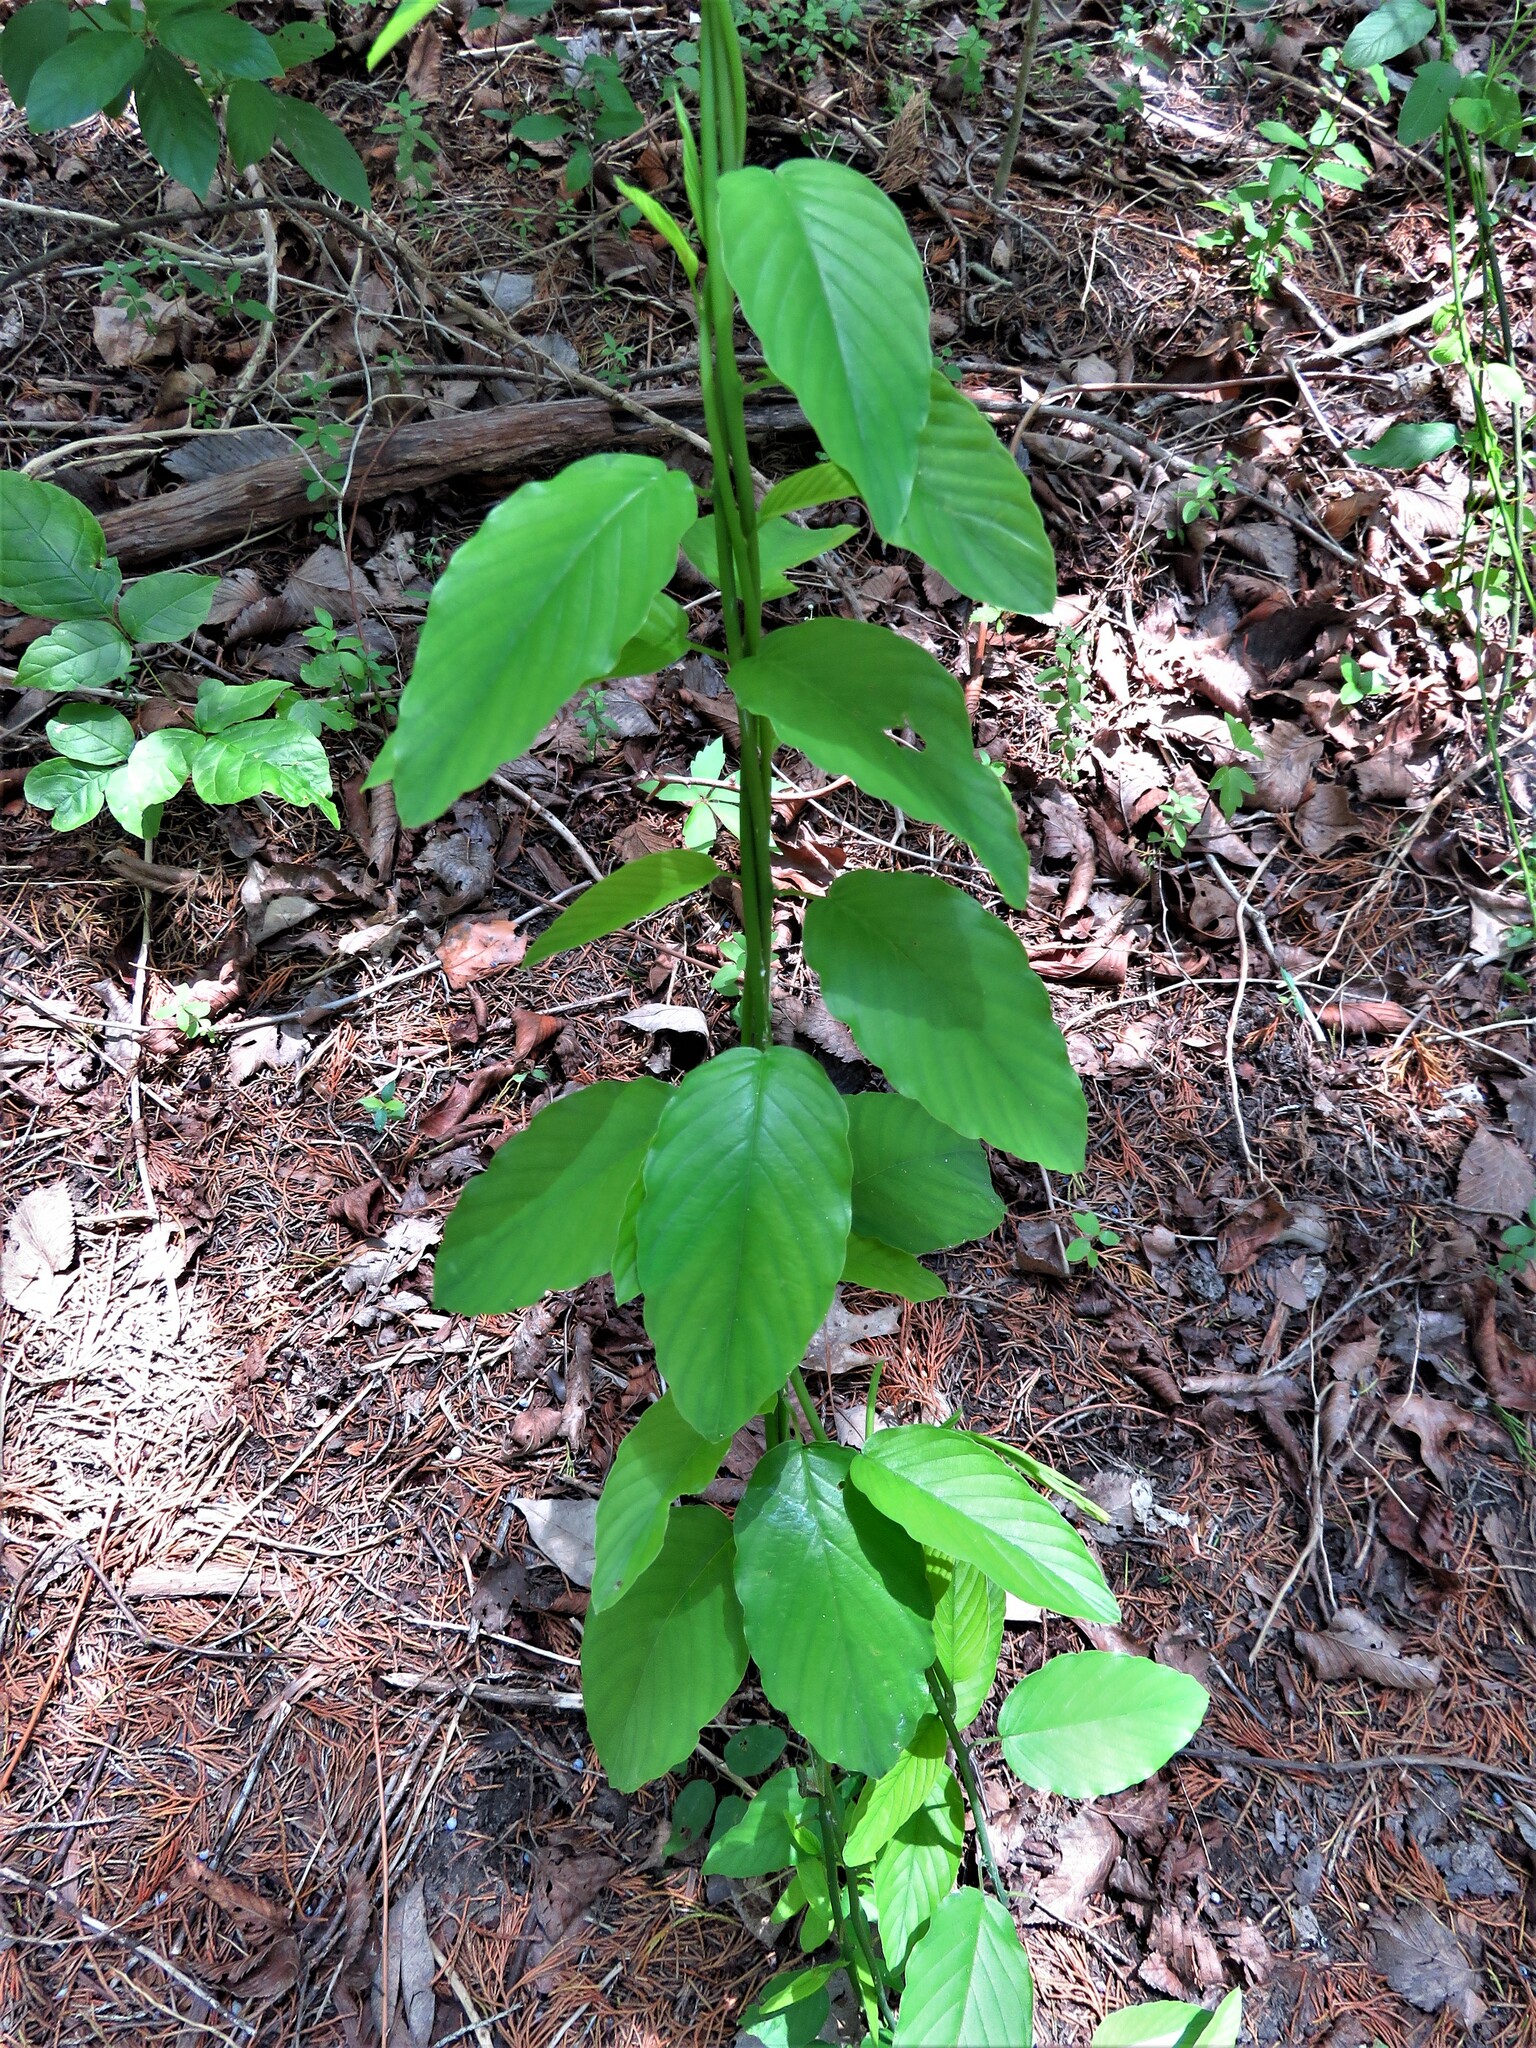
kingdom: Plantae
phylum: Tracheophyta
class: Magnoliopsida
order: Rosales
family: Rhamnaceae
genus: Berchemia
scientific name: Berchemia scandens
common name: Supplejack
